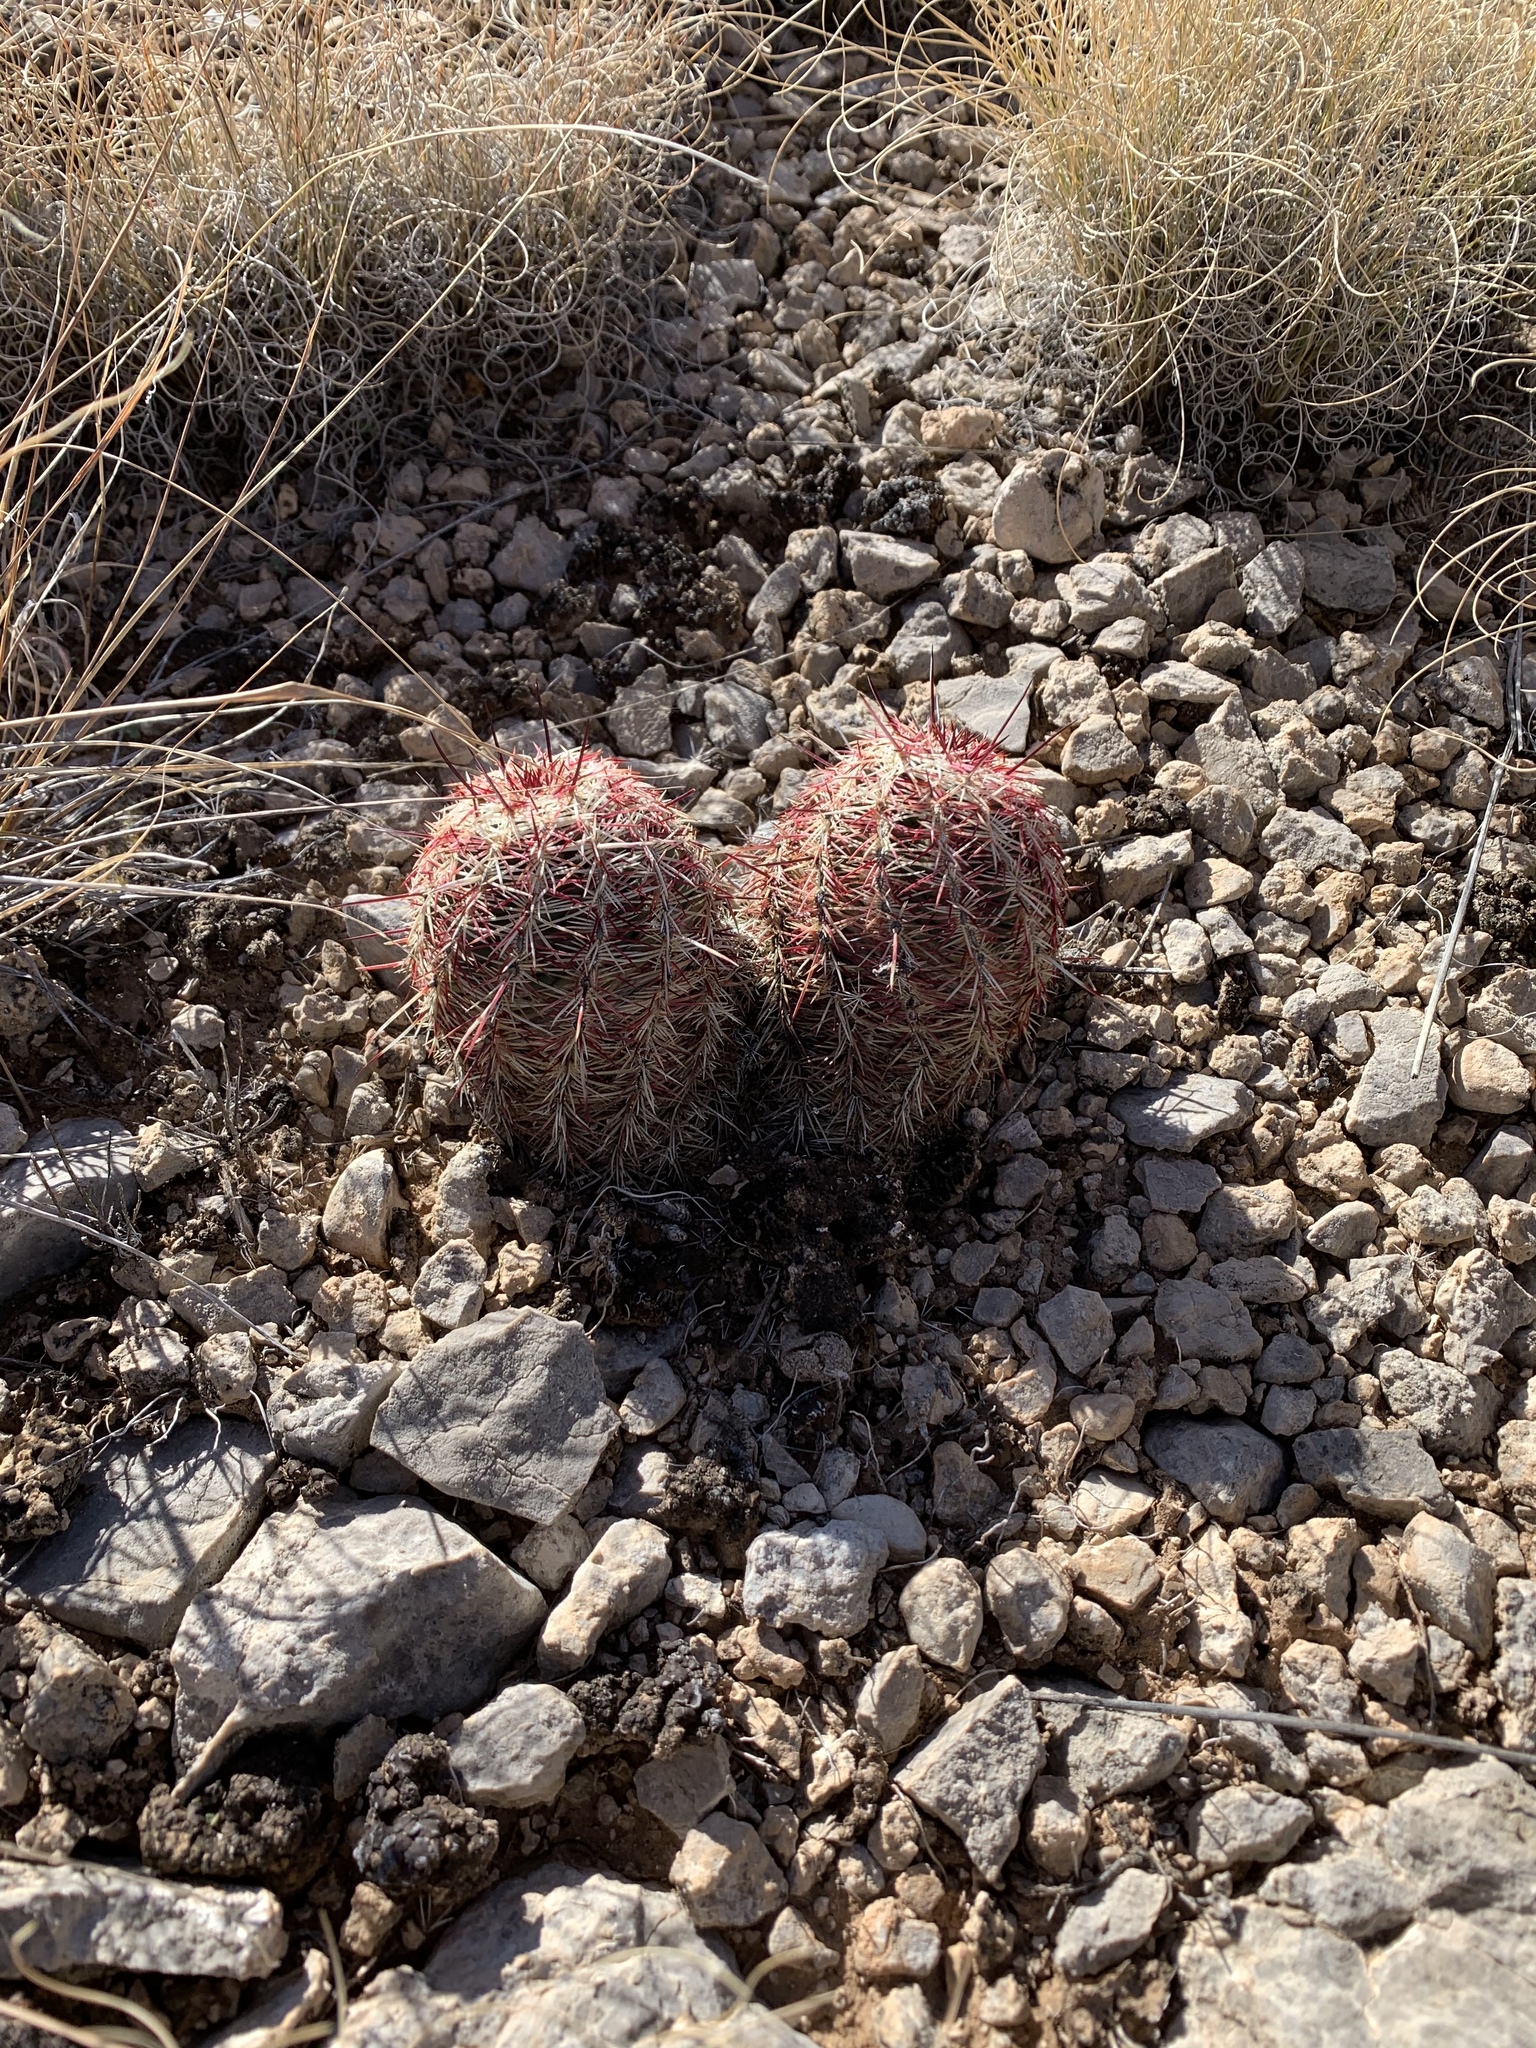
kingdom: Plantae
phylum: Tracheophyta
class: Magnoliopsida
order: Caryophyllales
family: Cactaceae
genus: Echinocereus
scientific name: Echinocereus viridiflorus
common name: Nylon hedgehog cactus
